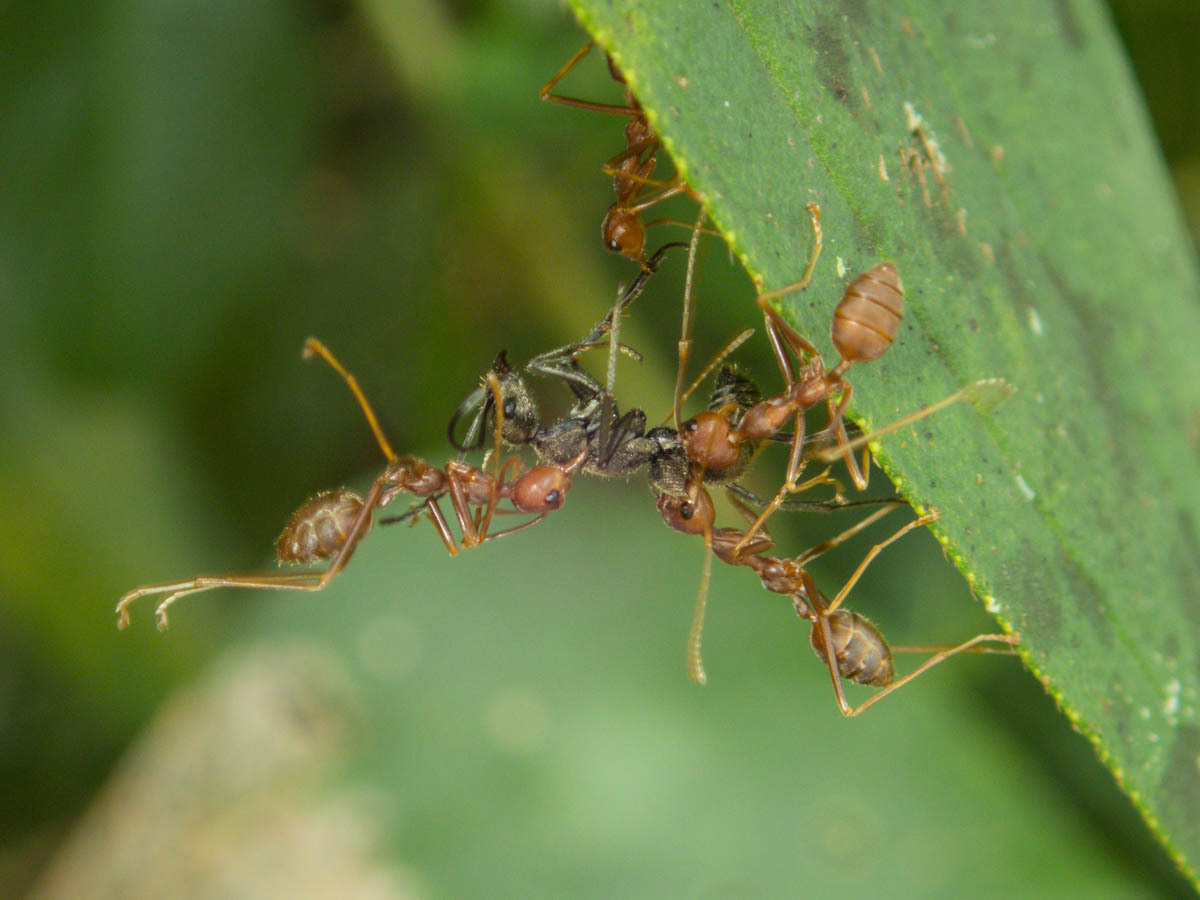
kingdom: Animalia
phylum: Arthropoda
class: Insecta
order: Hymenoptera
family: Formicidae
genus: Oecophylla
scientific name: Oecophylla smaragdina
